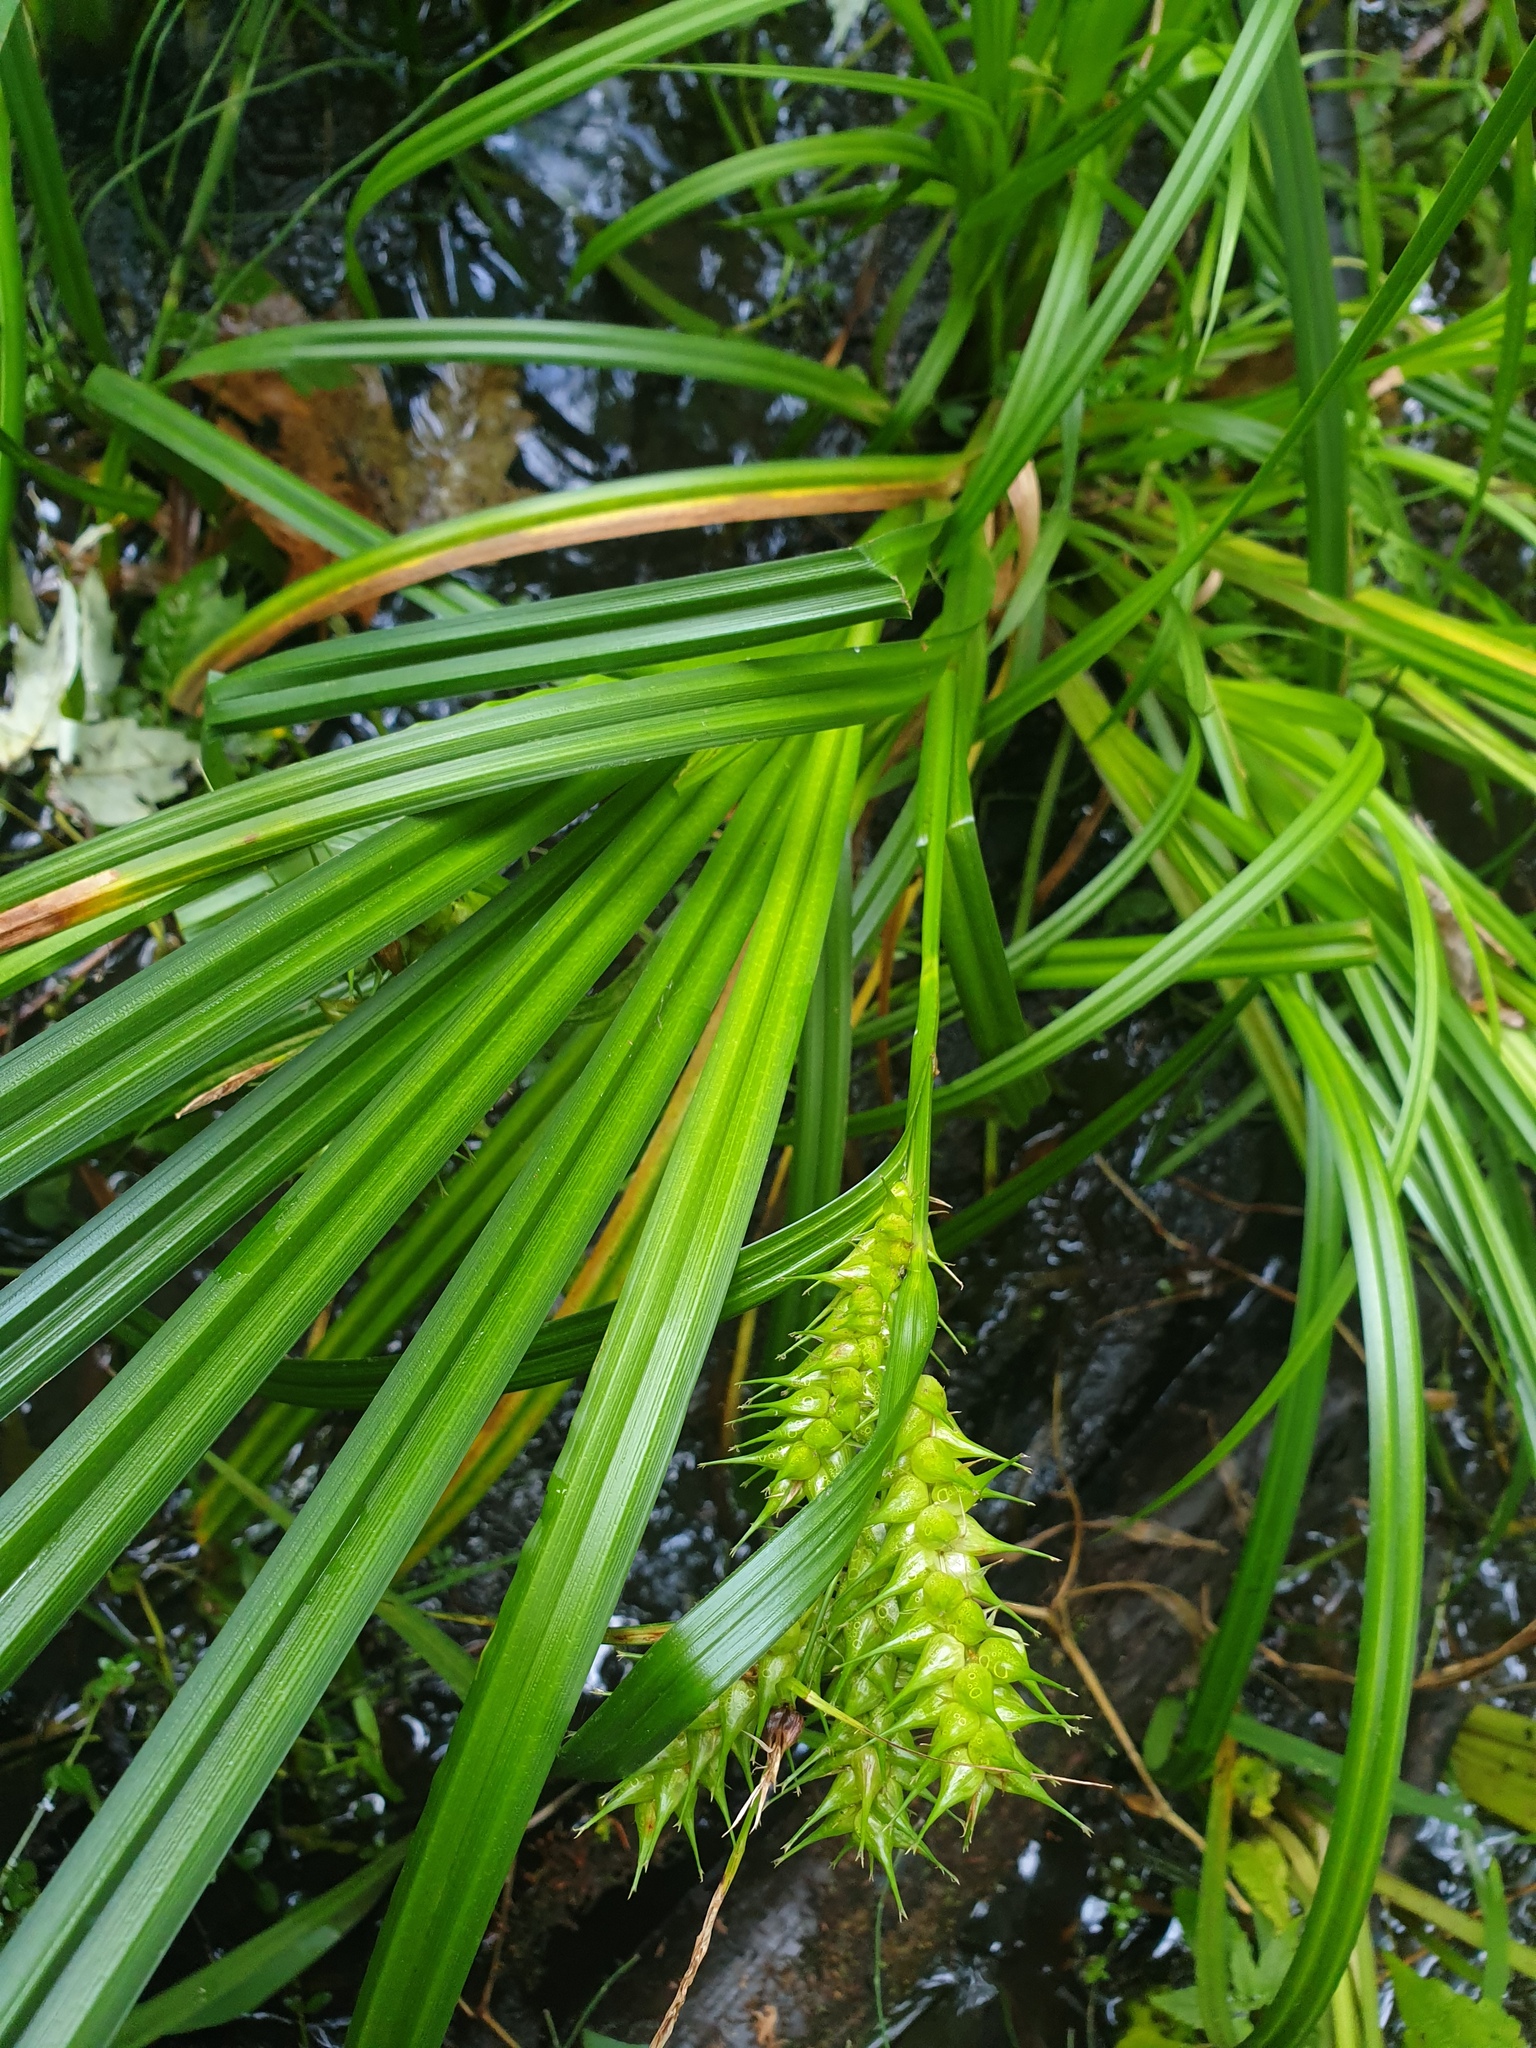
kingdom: Plantae
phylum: Tracheophyta
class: Liliopsida
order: Poales
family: Cyperaceae
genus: Carex
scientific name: Carex lupuliformis
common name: False hop sedge
